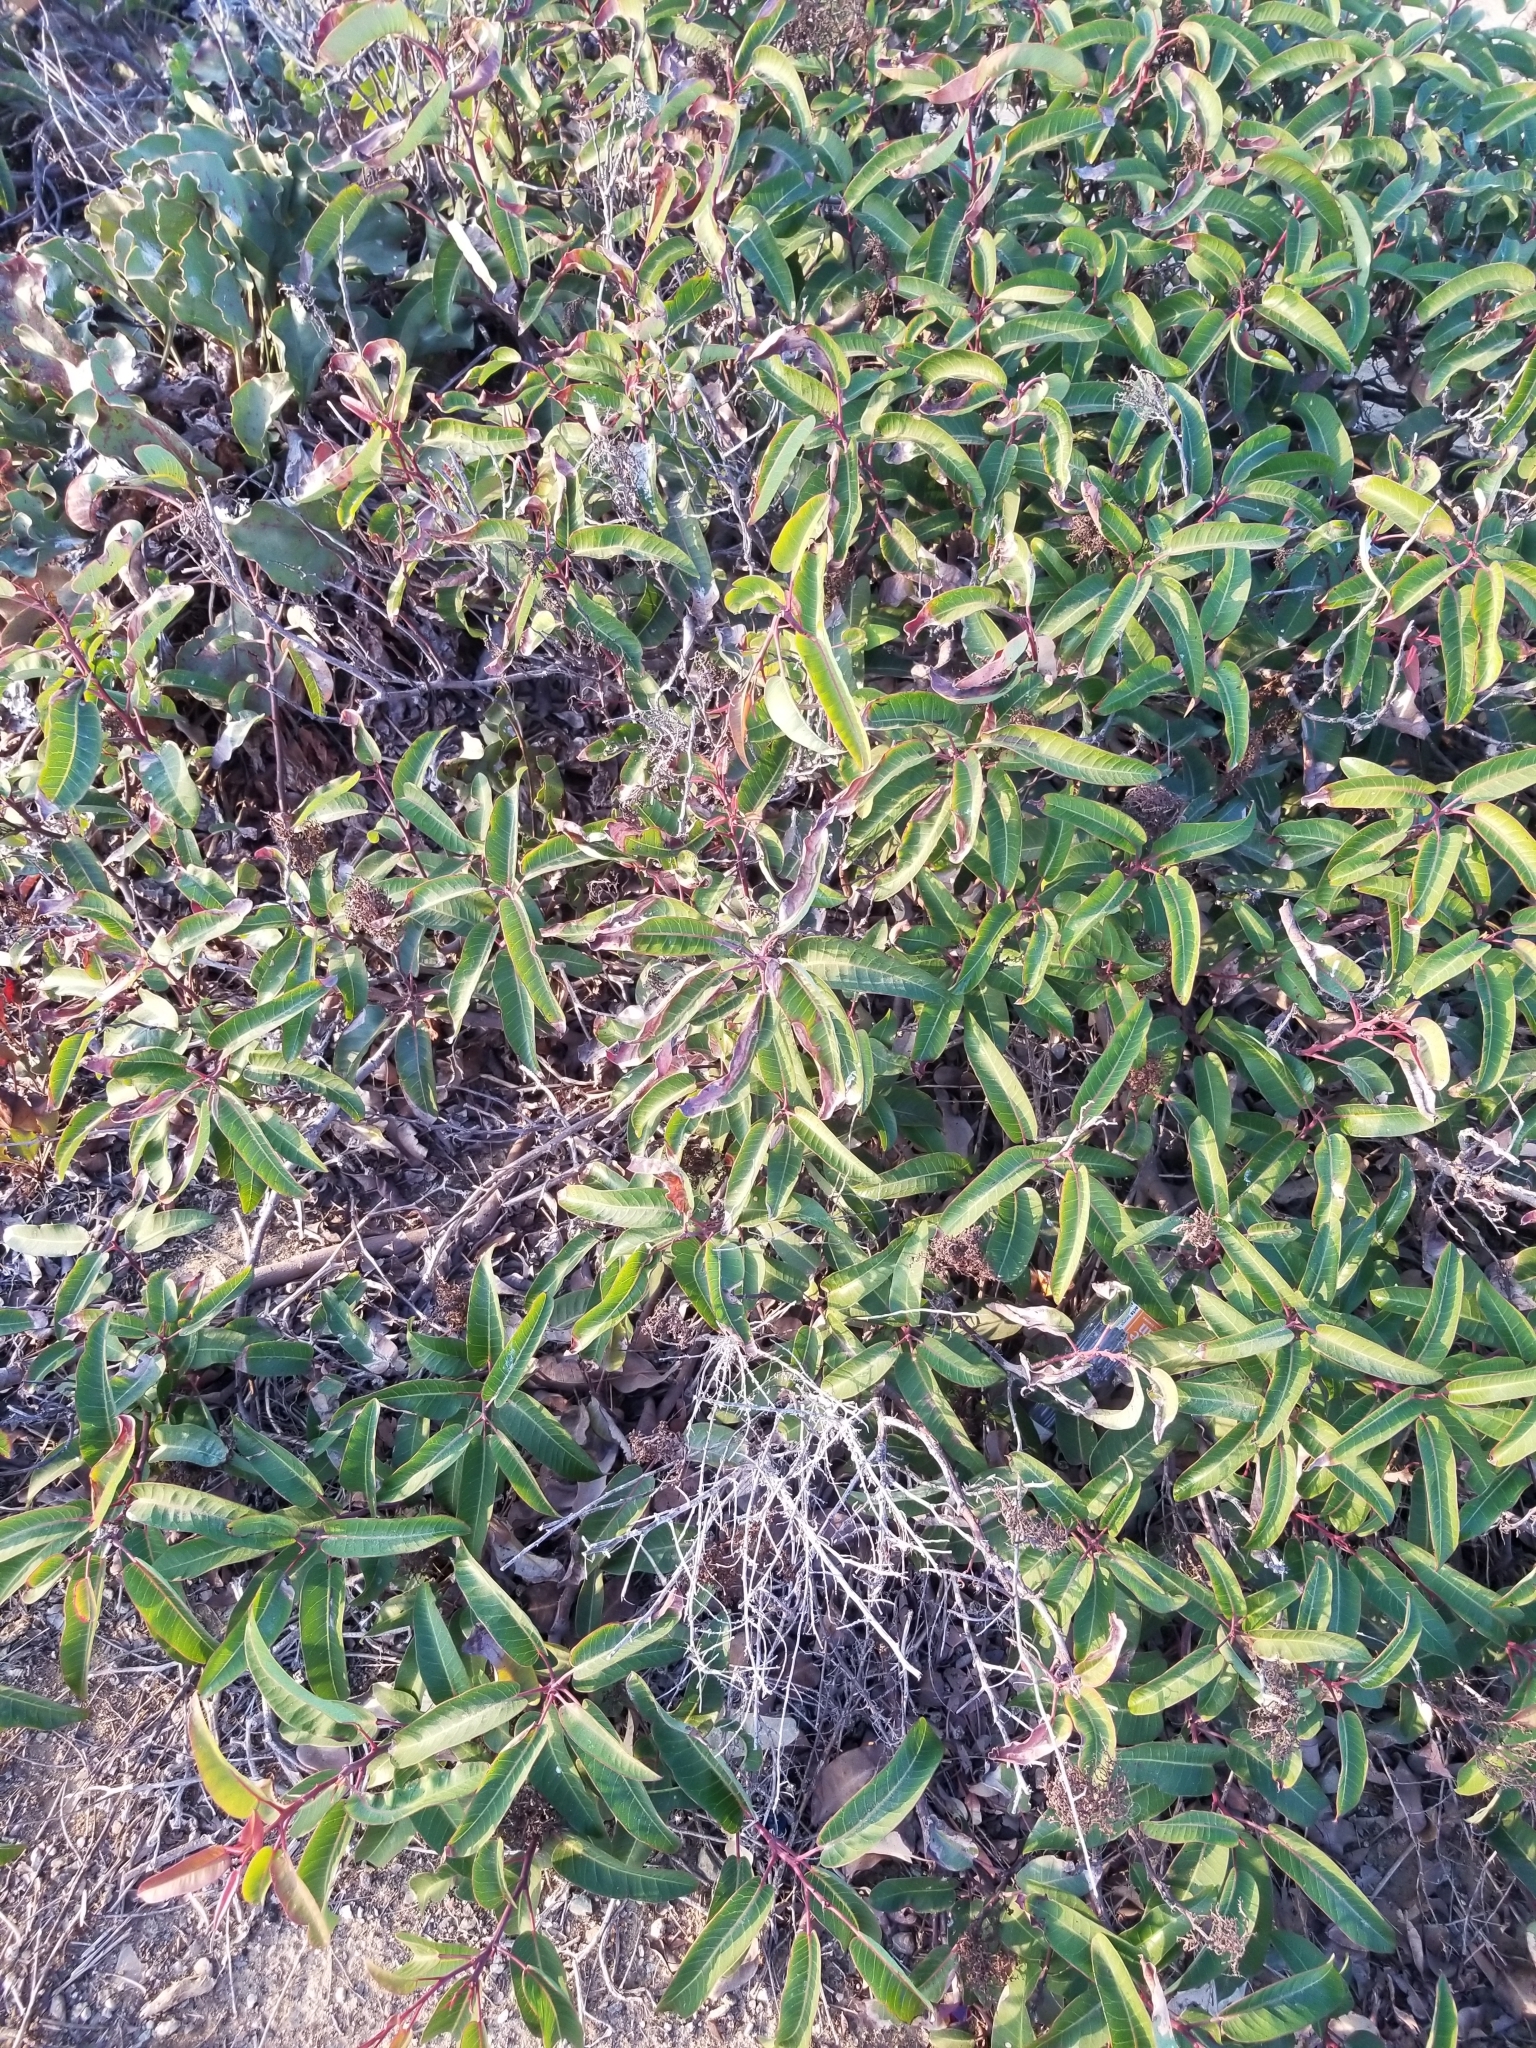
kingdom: Plantae
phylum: Tracheophyta
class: Magnoliopsida
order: Sapindales
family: Anacardiaceae
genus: Malosma
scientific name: Malosma laurina
